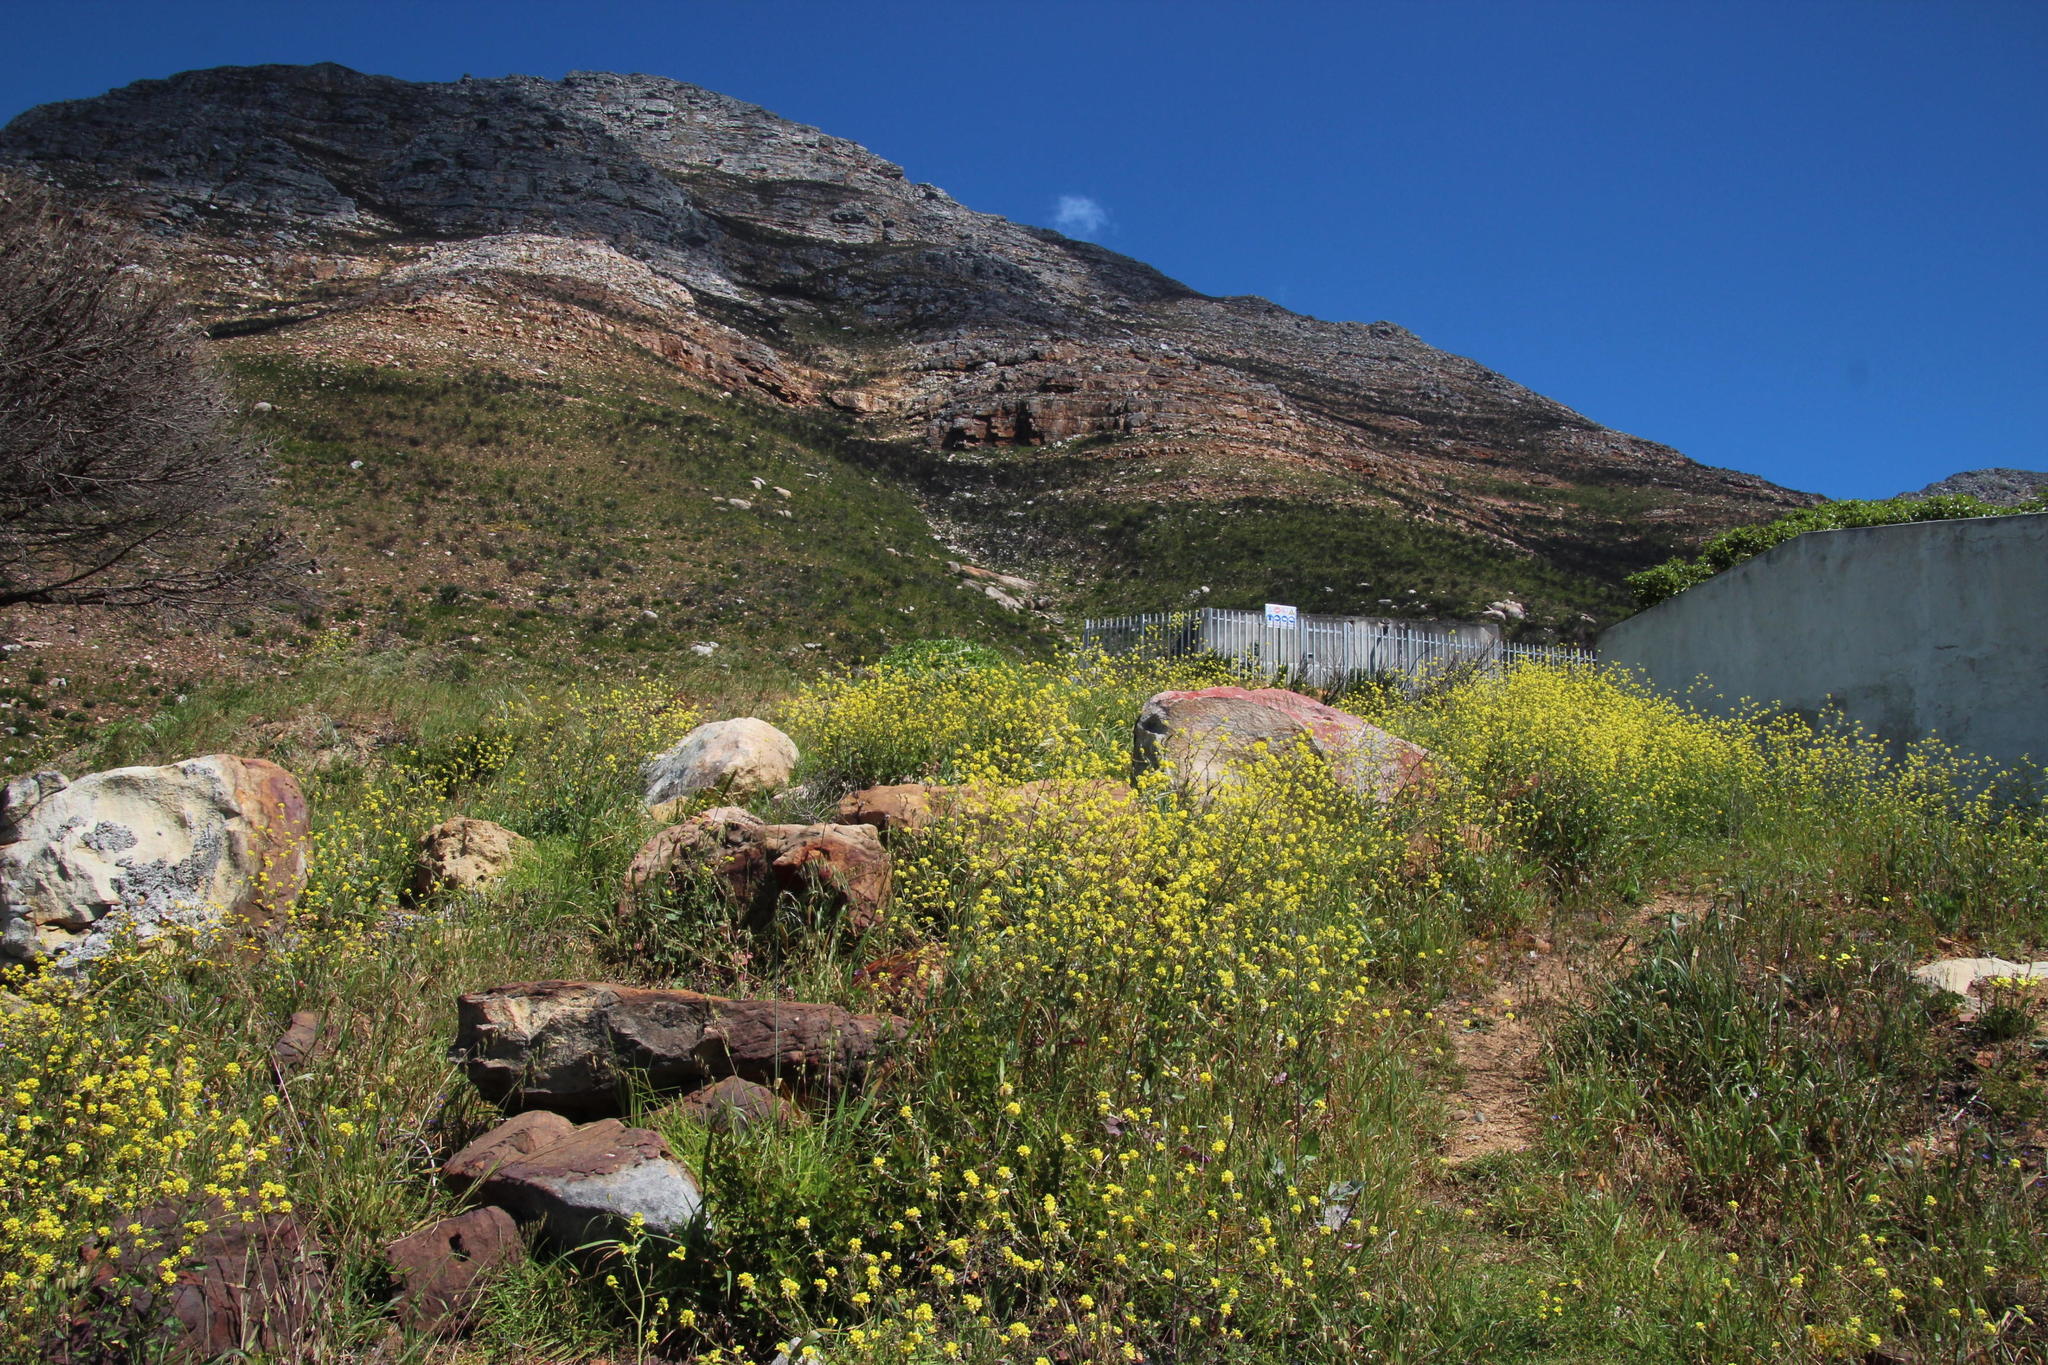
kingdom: Plantae
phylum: Tracheophyta
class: Magnoliopsida
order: Brassicales
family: Brassicaceae
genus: Rapistrum
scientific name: Rapistrum rugosum
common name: Annual bastardcabbage
